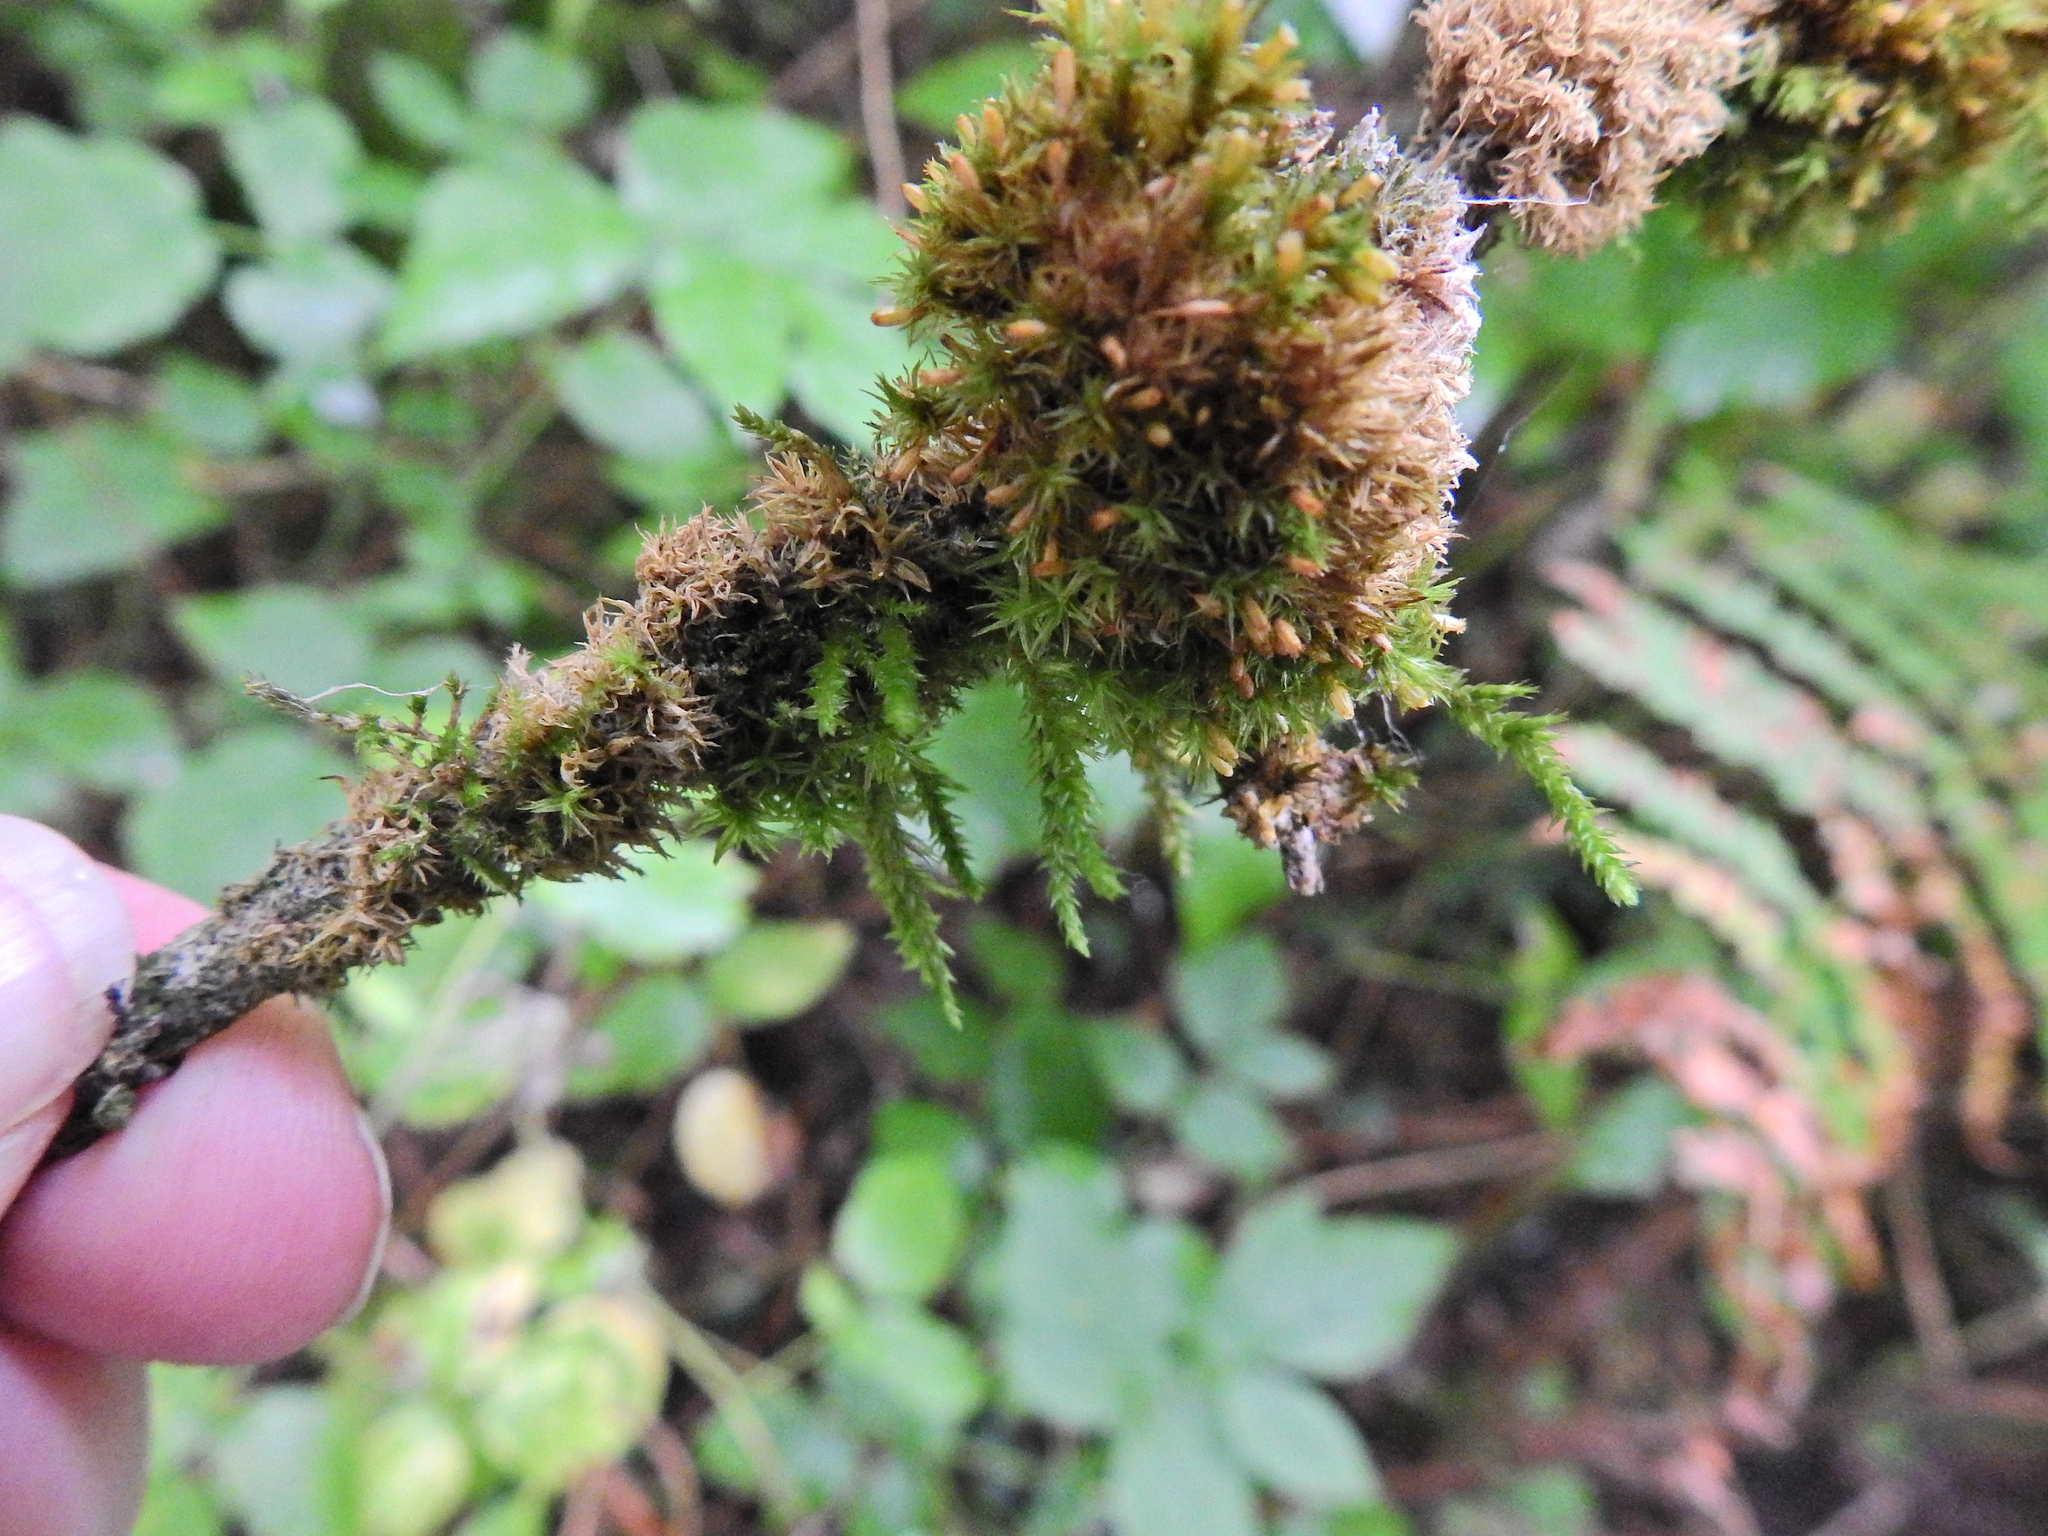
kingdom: Plantae
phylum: Bryophyta
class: Bryopsida
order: Hypnales
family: Cryphaeaceae
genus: Cryphaea
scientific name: Cryphaea heteromalla
